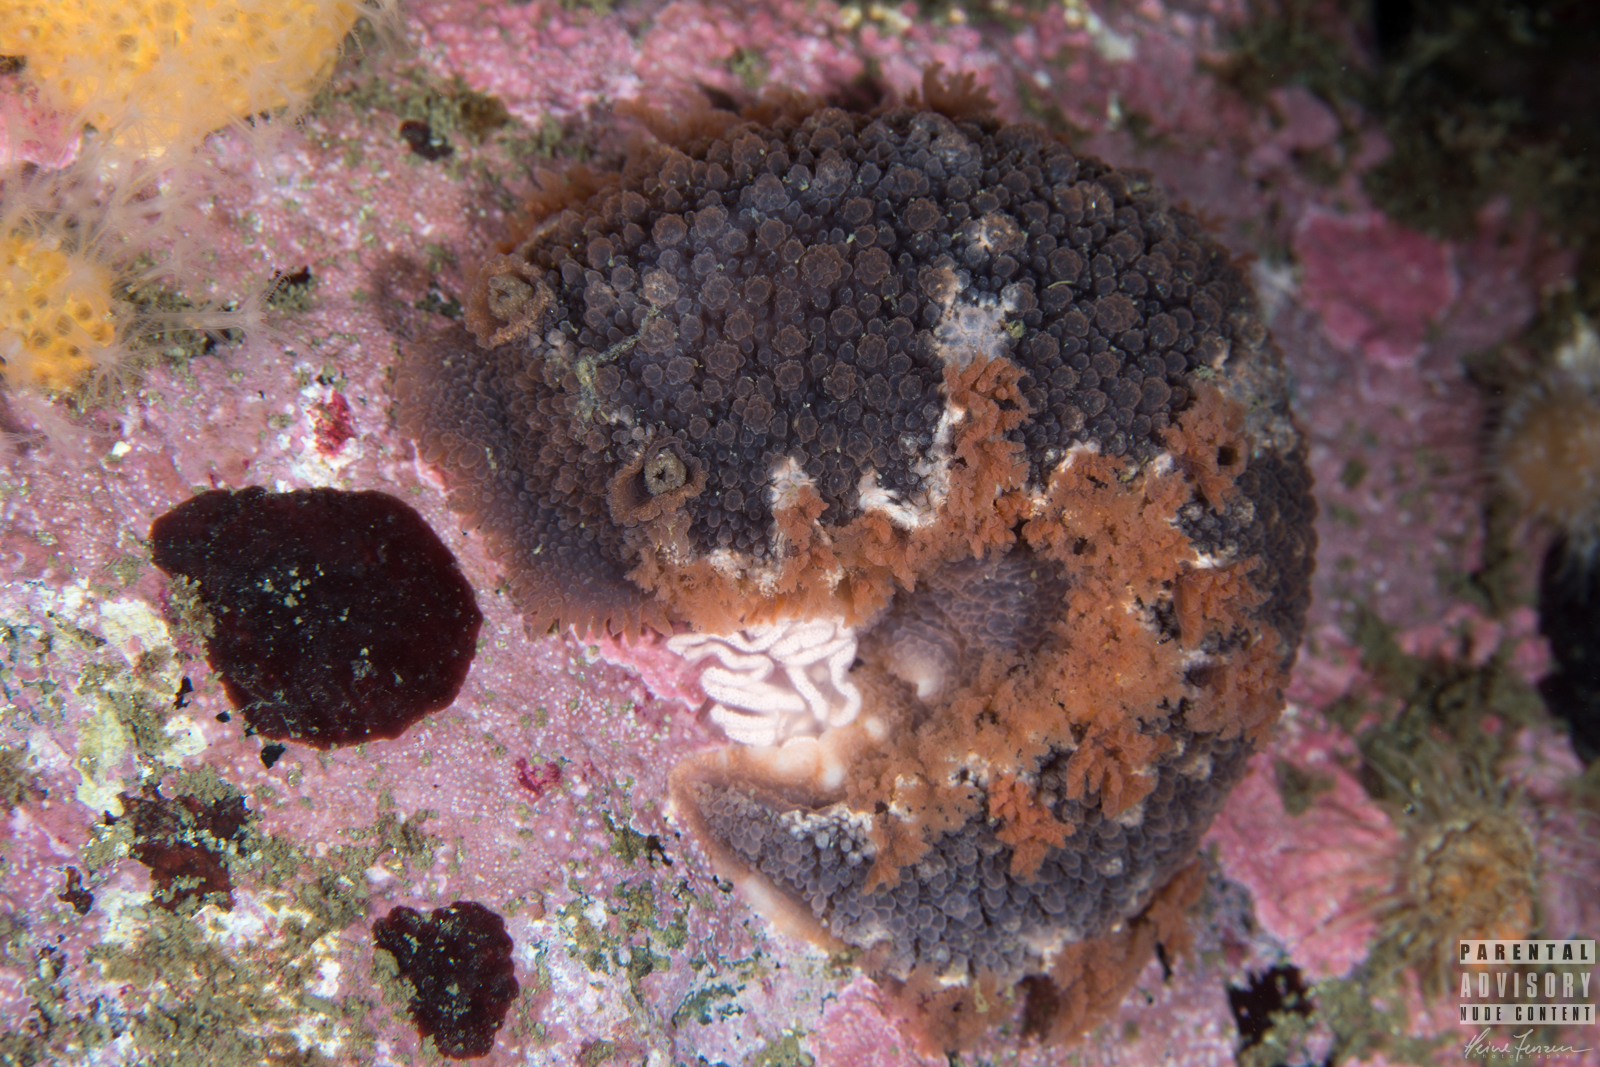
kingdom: Animalia
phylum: Mollusca
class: Gastropoda
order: Nudibranchia
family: Tritoniidae
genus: Tritonia
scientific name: Tritonia hombergii
